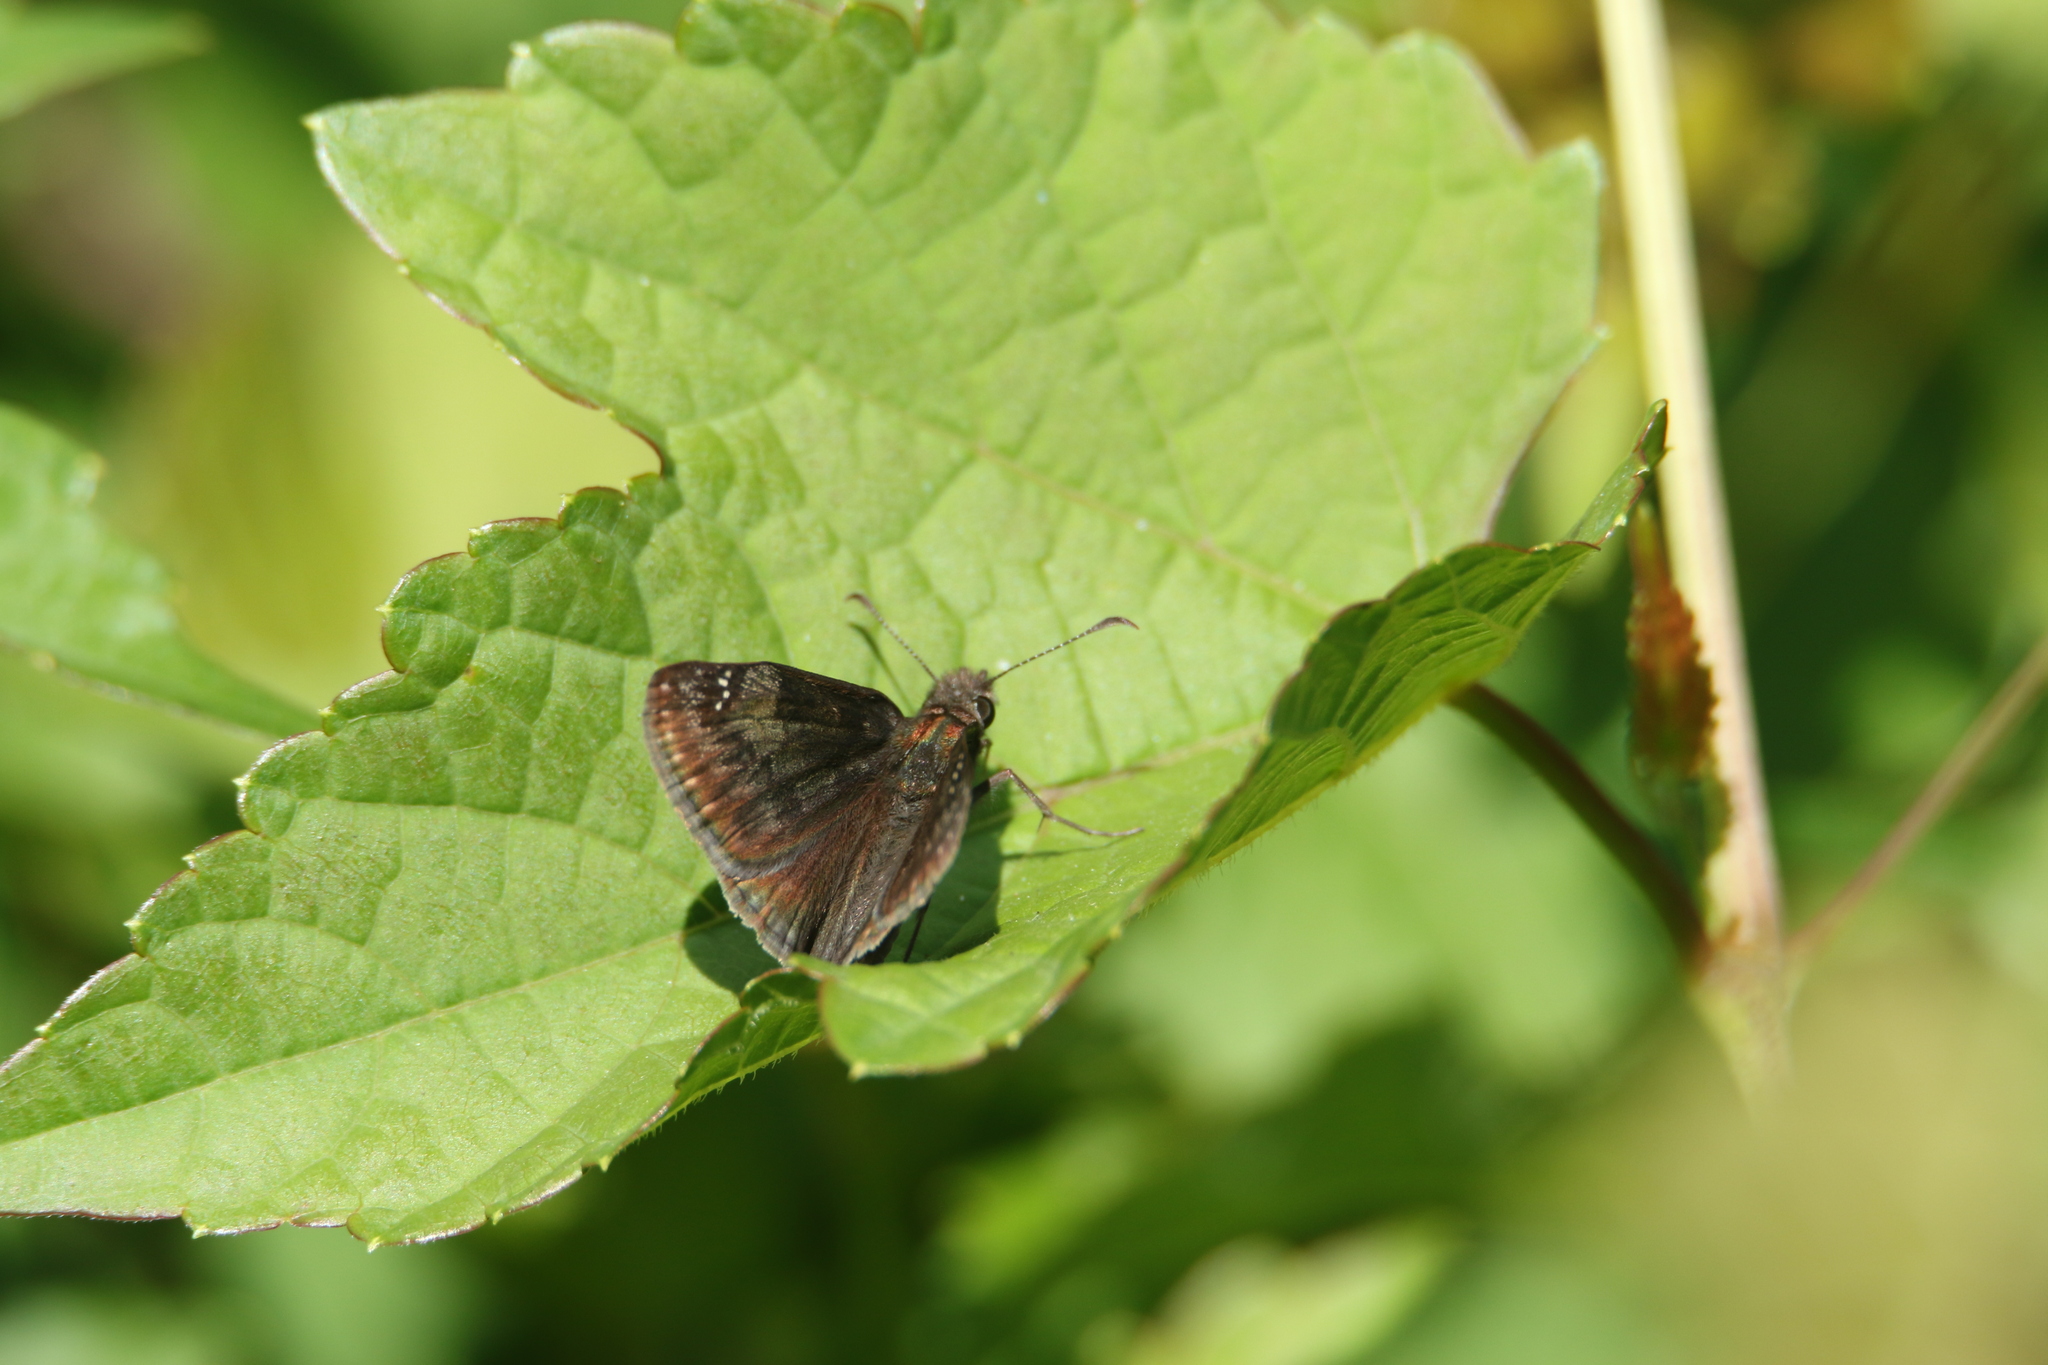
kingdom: Animalia
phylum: Arthropoda
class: Insecta
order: Lepidoptera
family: Hesperiidae
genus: Erynnis
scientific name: Erynnis baptisiae
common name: Wild indigo duskywing
